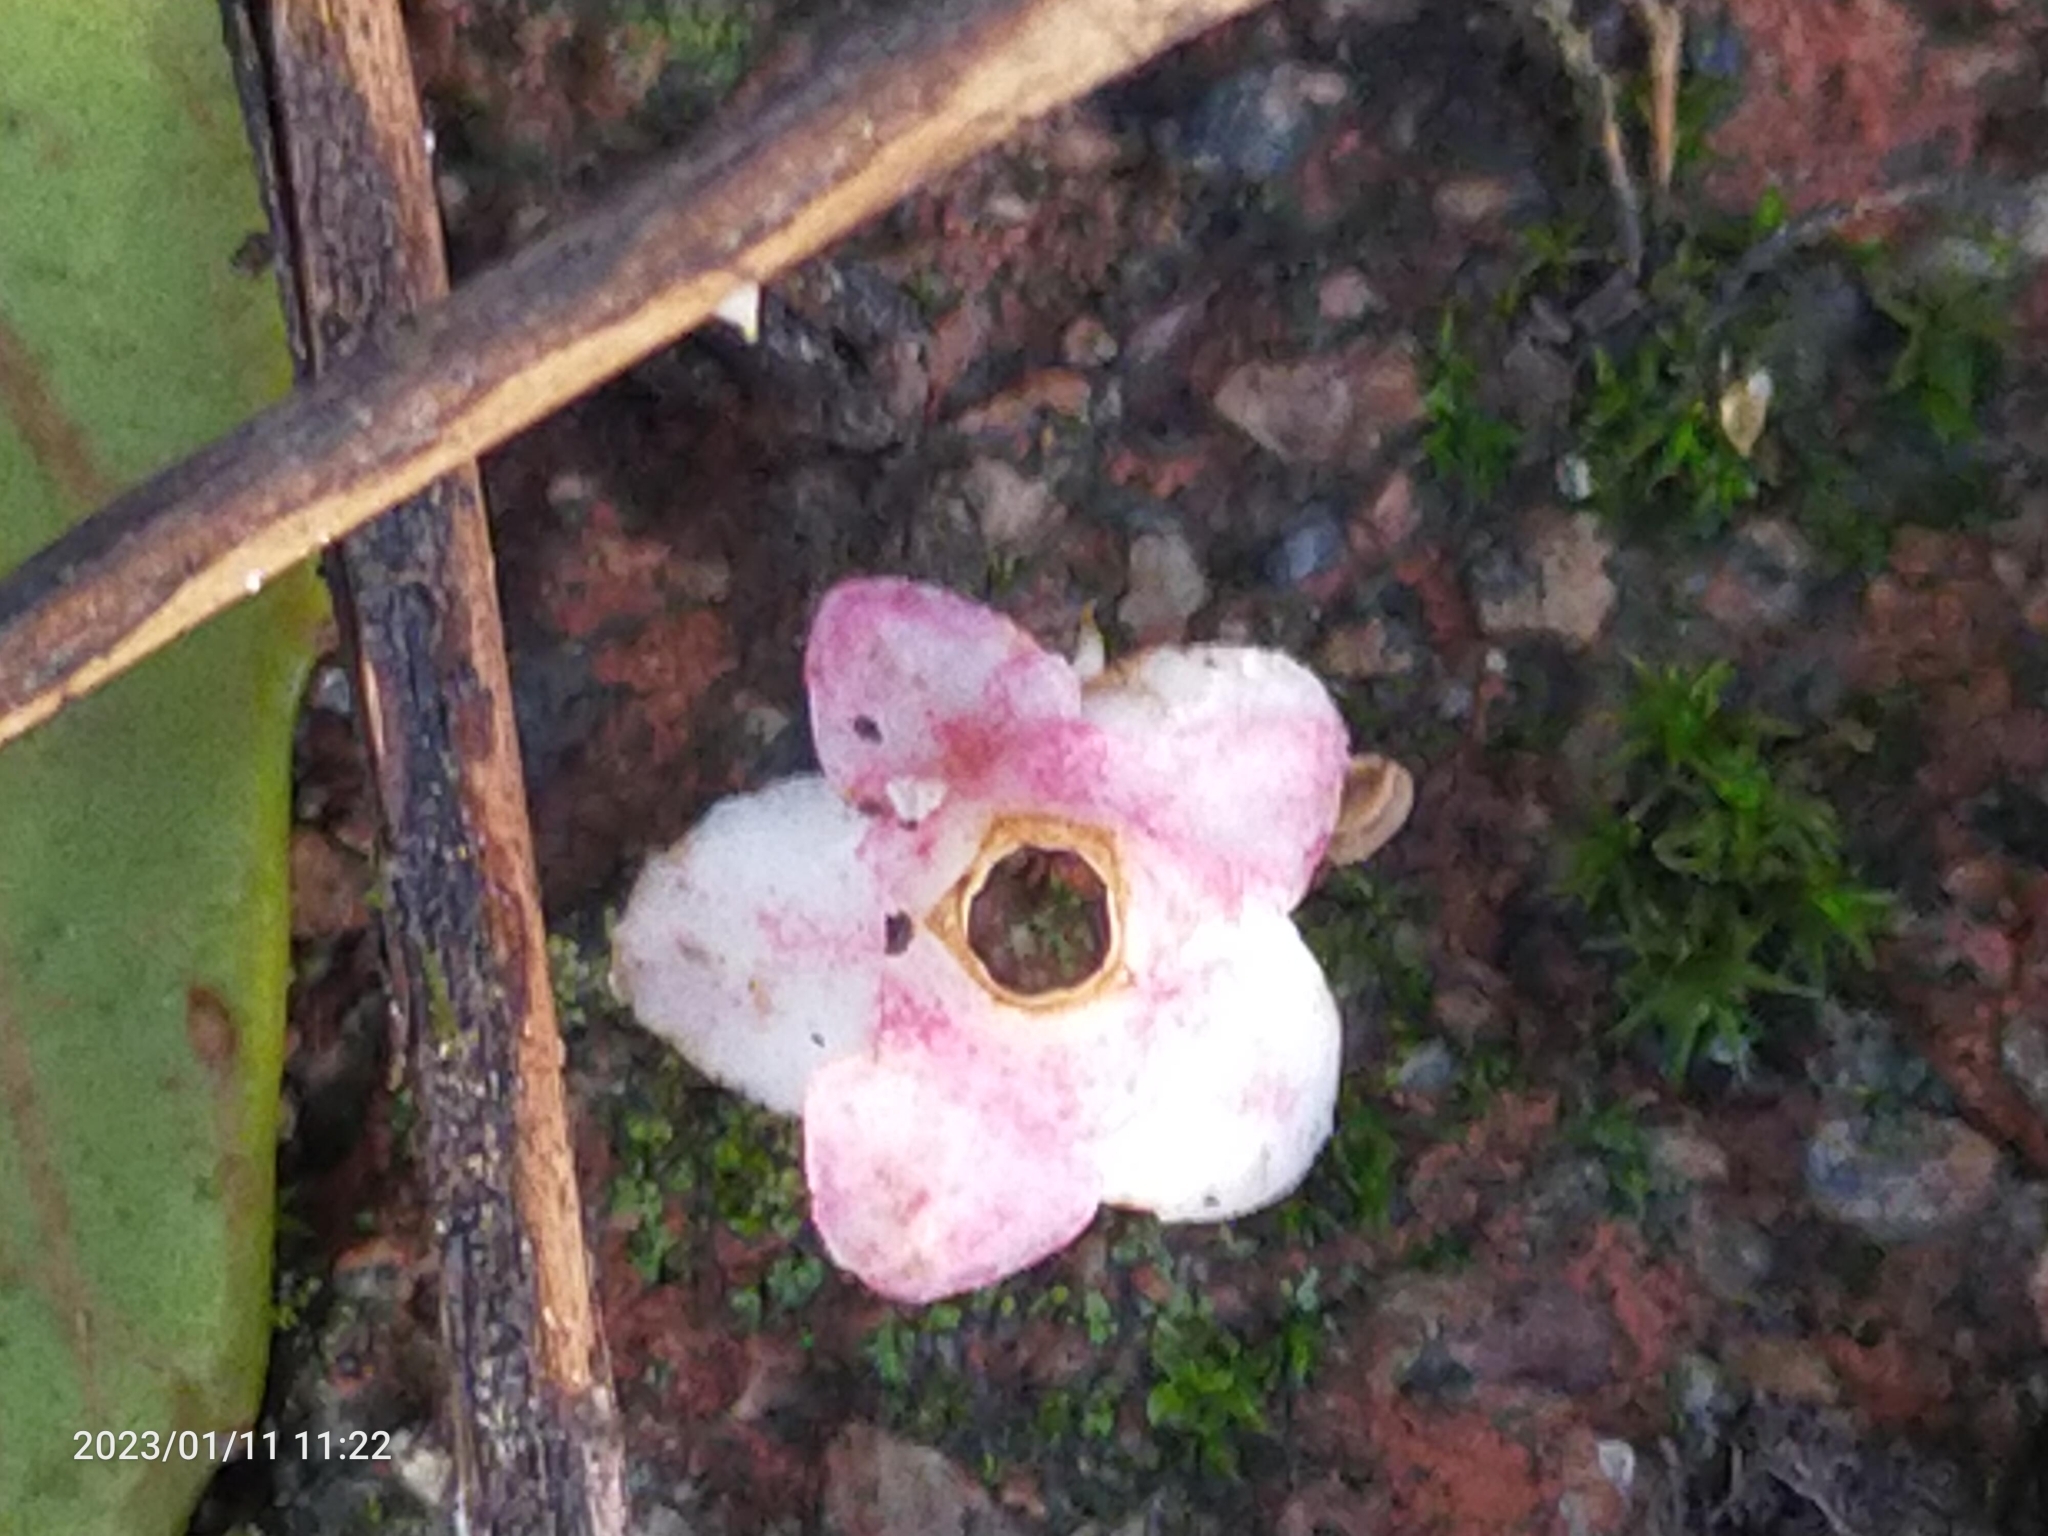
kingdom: Plantae
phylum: Tracheophyta
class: Magnoliopsida
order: Dipsacales
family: Viburnaceae
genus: Viburnum
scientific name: Viburnum
